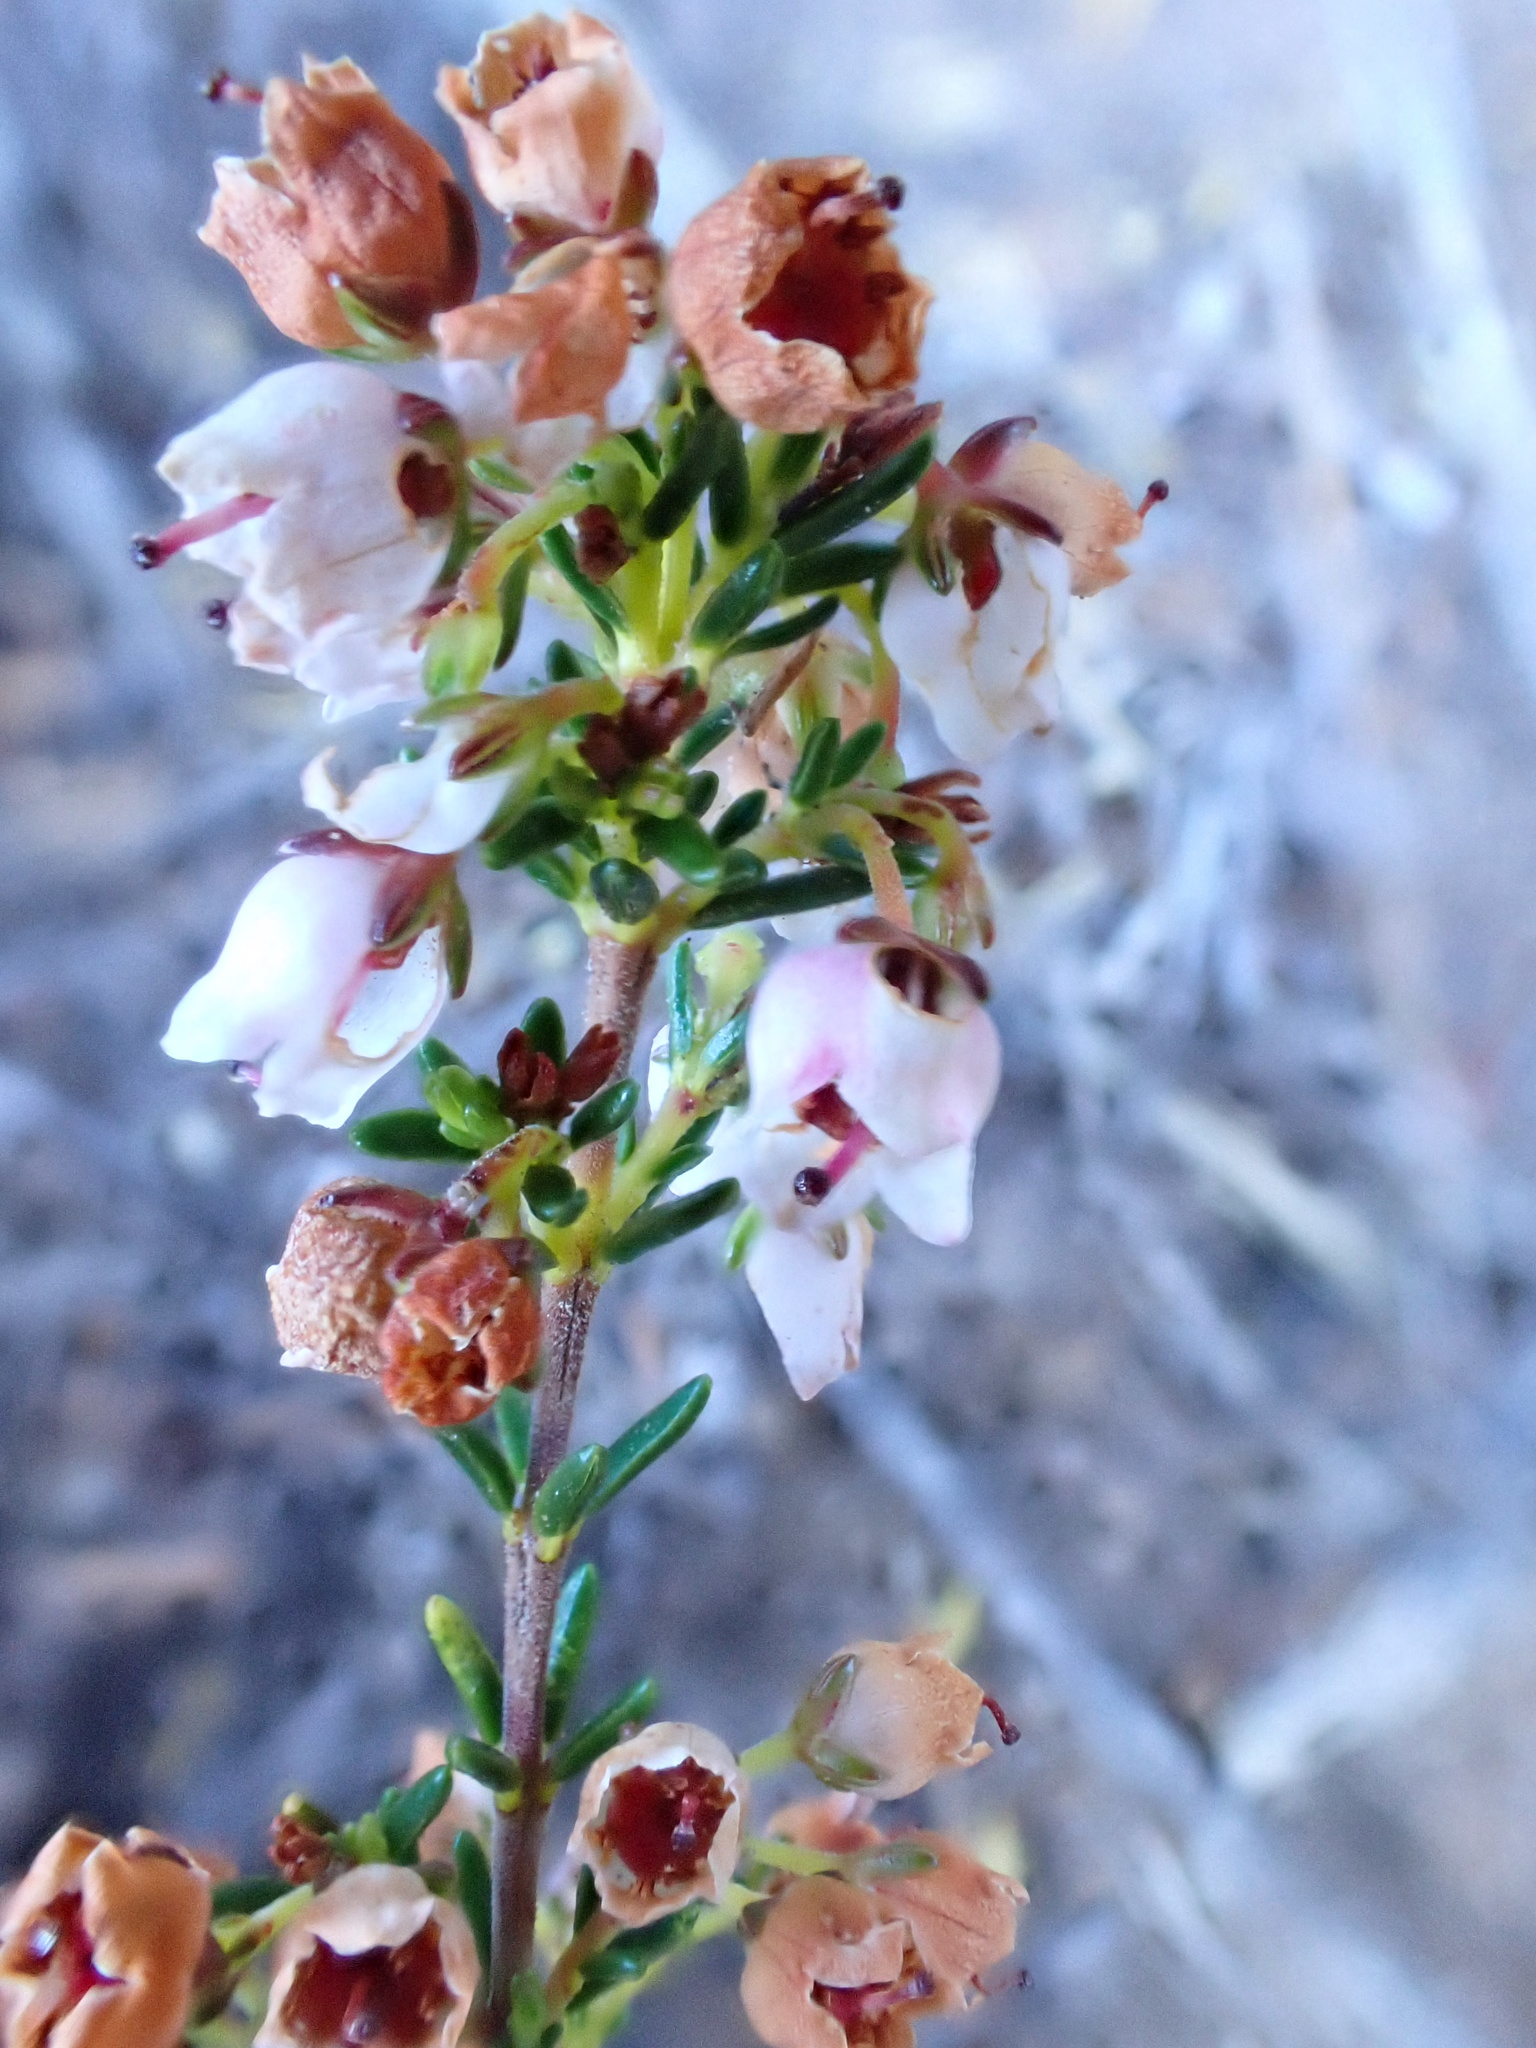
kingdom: Plantae
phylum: Tracheophyta
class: Magnoliopsida
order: Ericales
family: Ericaceae
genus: Erica
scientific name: Erica curvirostris
